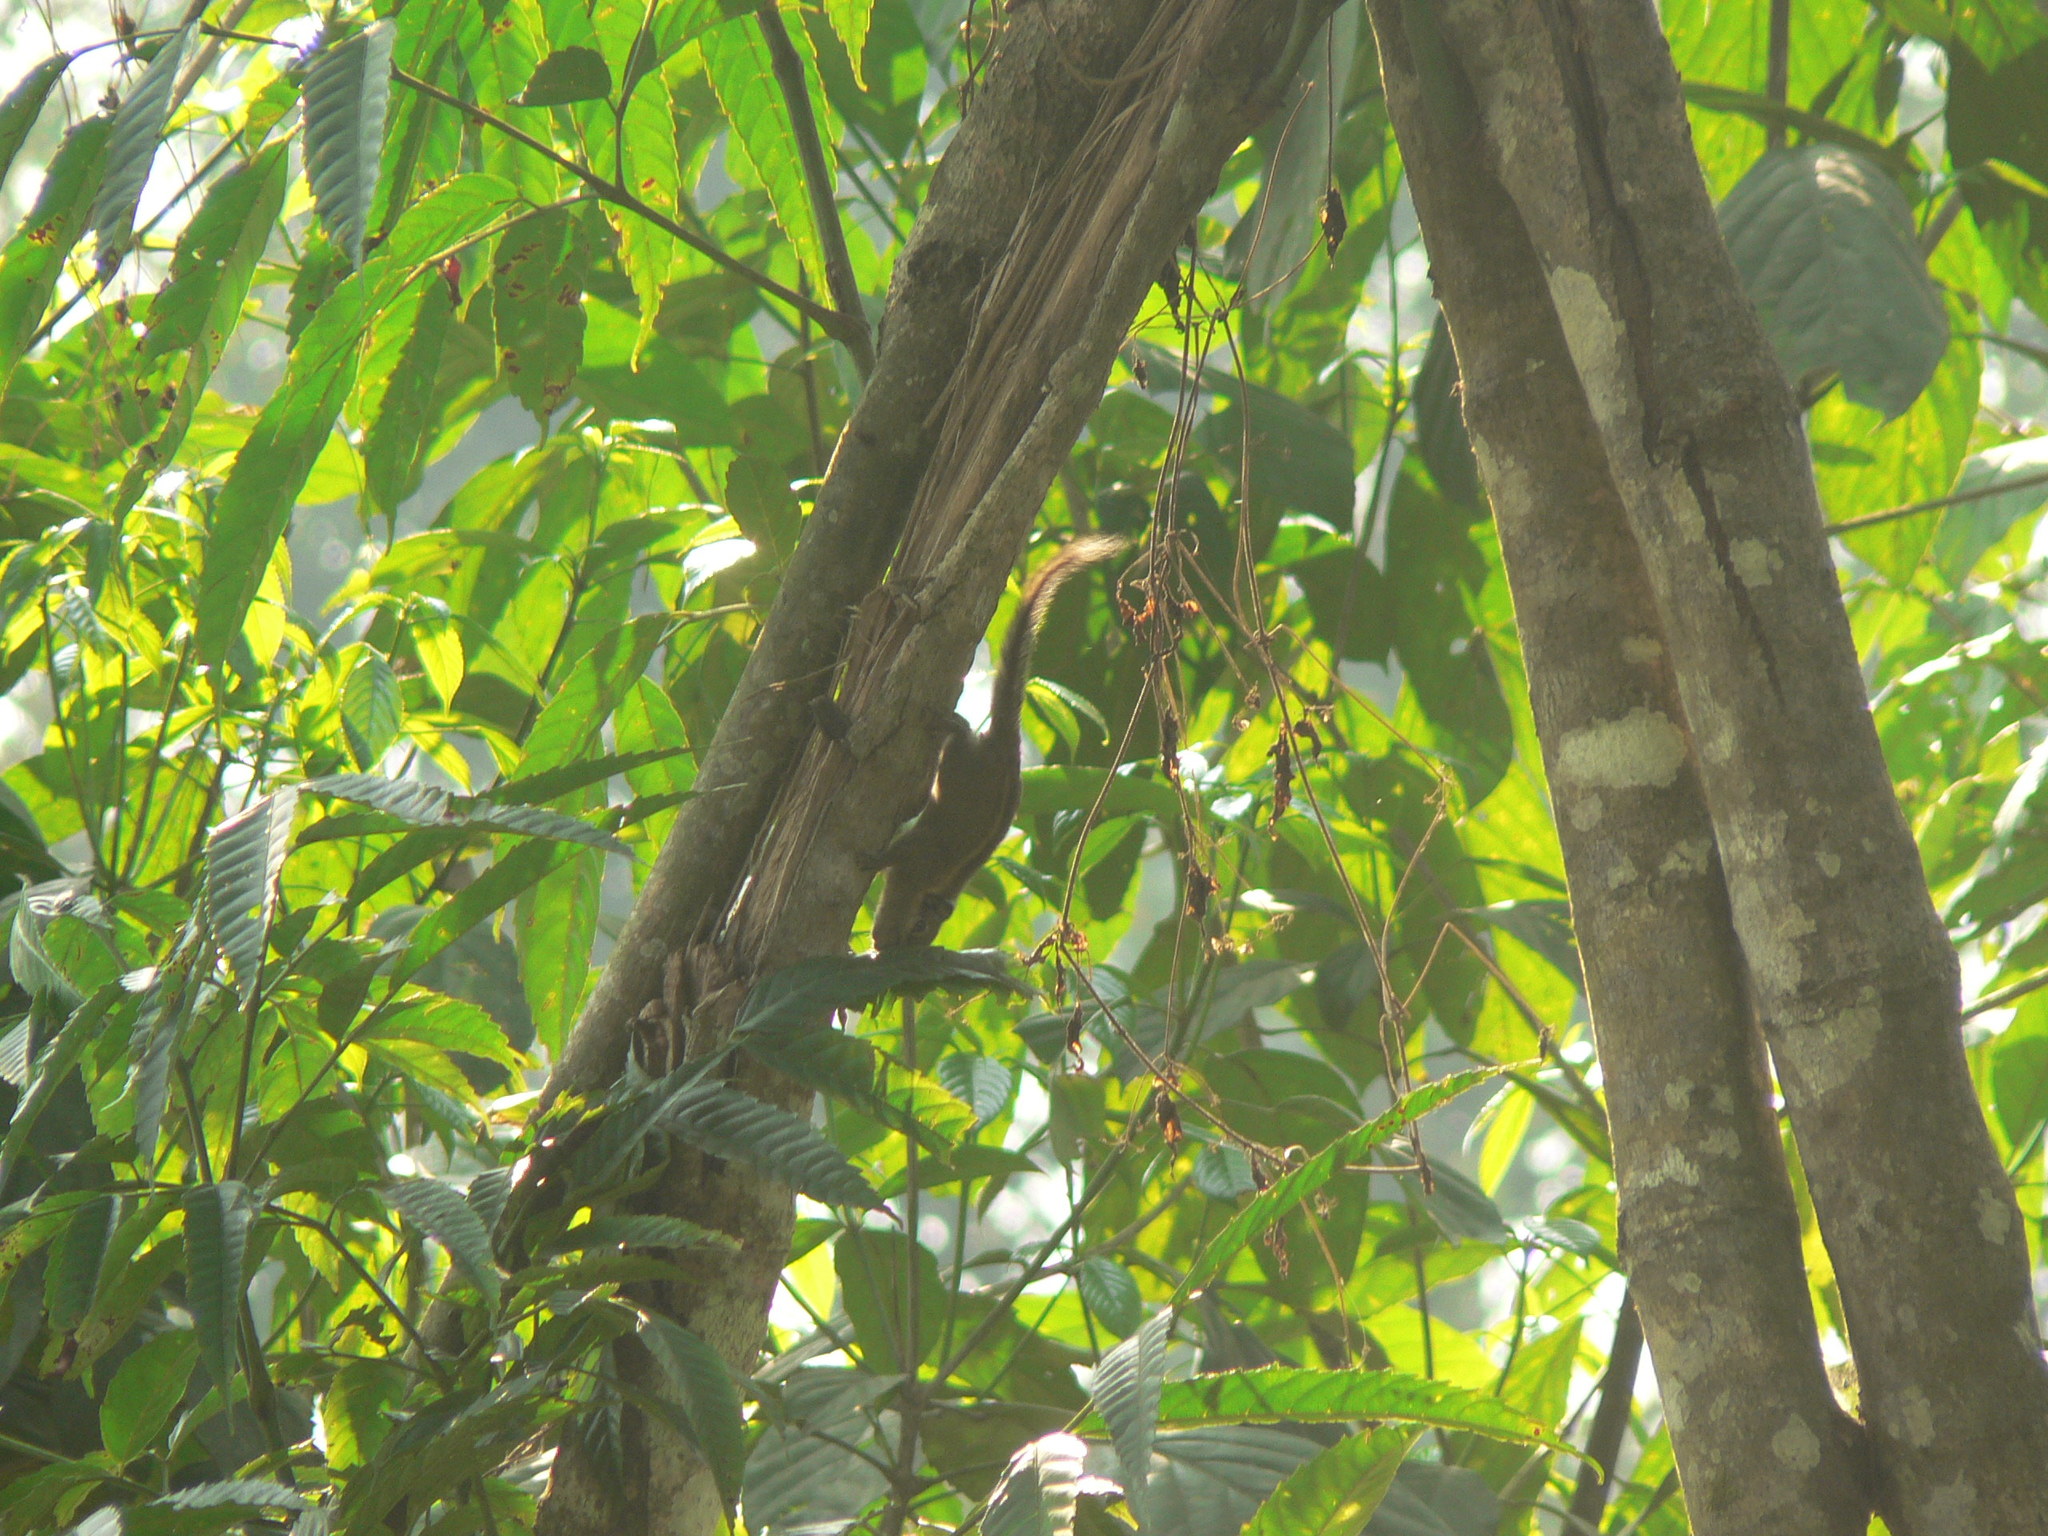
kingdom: Animalia
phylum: Chordata
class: Mammalia
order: Rodentia
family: Sciuridae
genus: Tamiops
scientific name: Tamiops mcclellandii
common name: Himalayan striped squirrel
